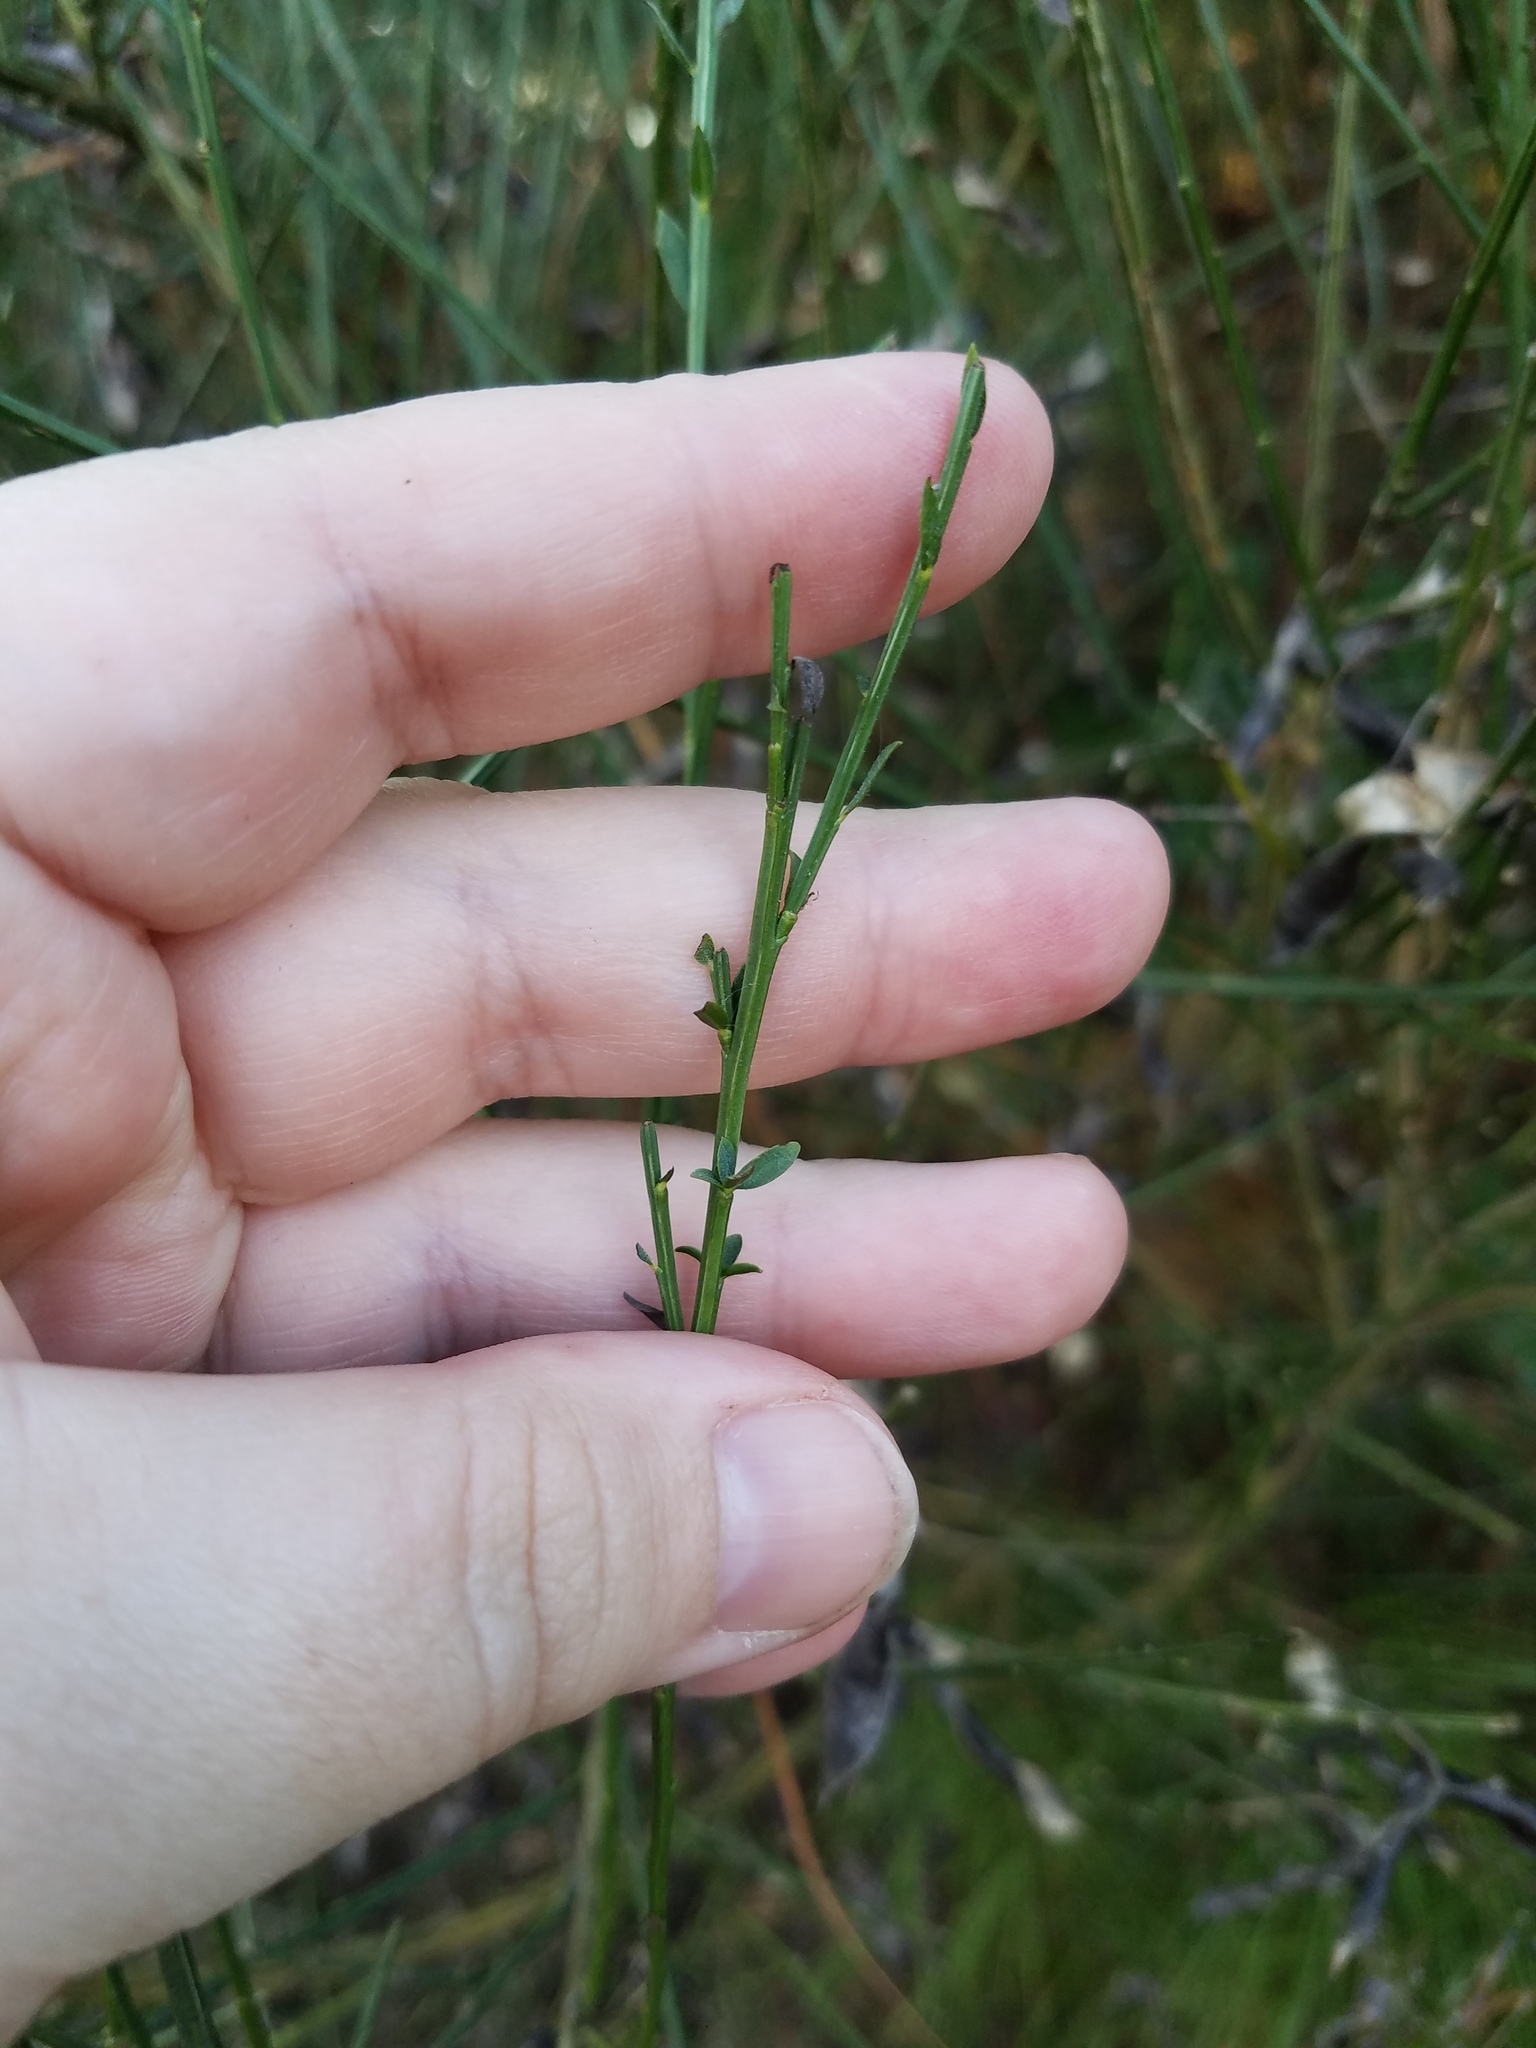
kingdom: Plantae
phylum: Tracheophyta
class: Magnoliopsida
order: Fabales
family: Fabaceae
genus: Cytisus
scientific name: Cytisus scoparius
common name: Scotch broom
